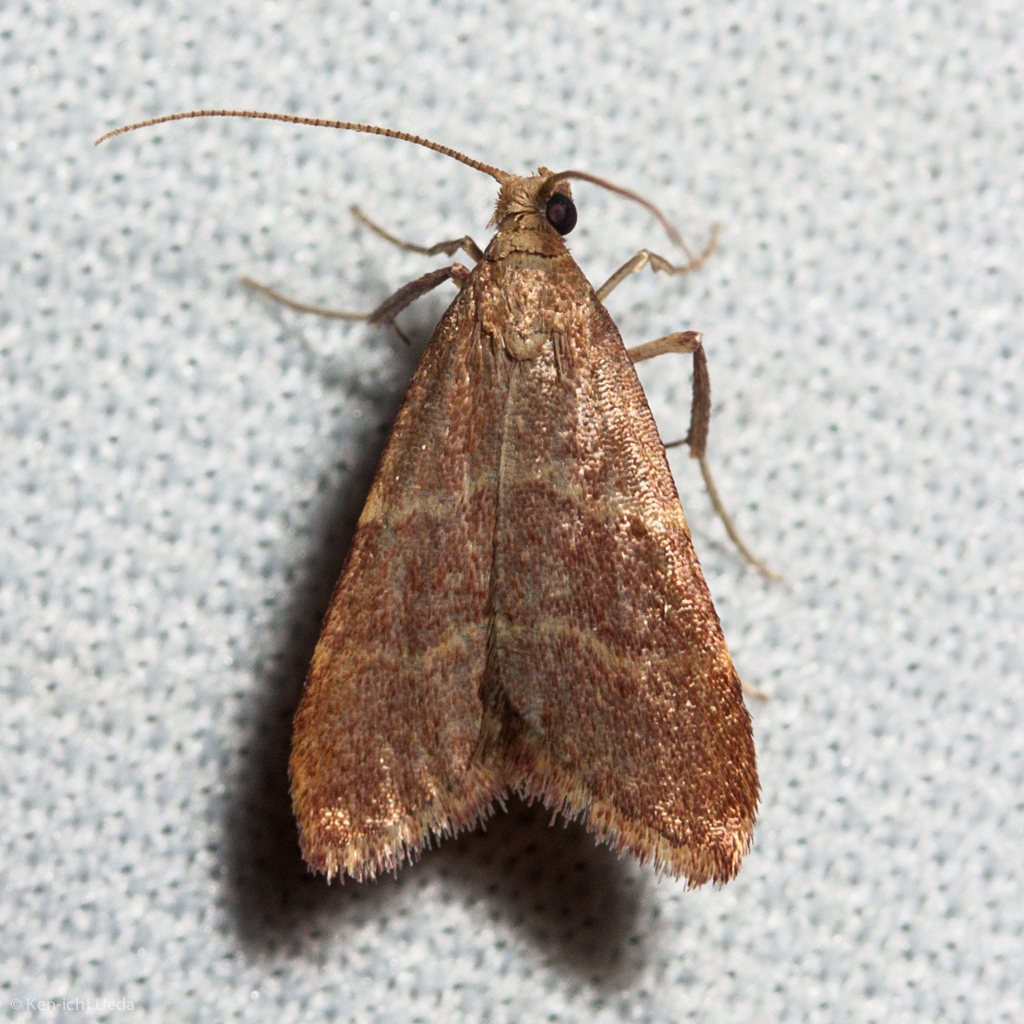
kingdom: Animalia
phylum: Arthropoda
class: Insecta
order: Lepidoptera
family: Pyralidae
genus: Arta
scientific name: Arta epicoenalis
